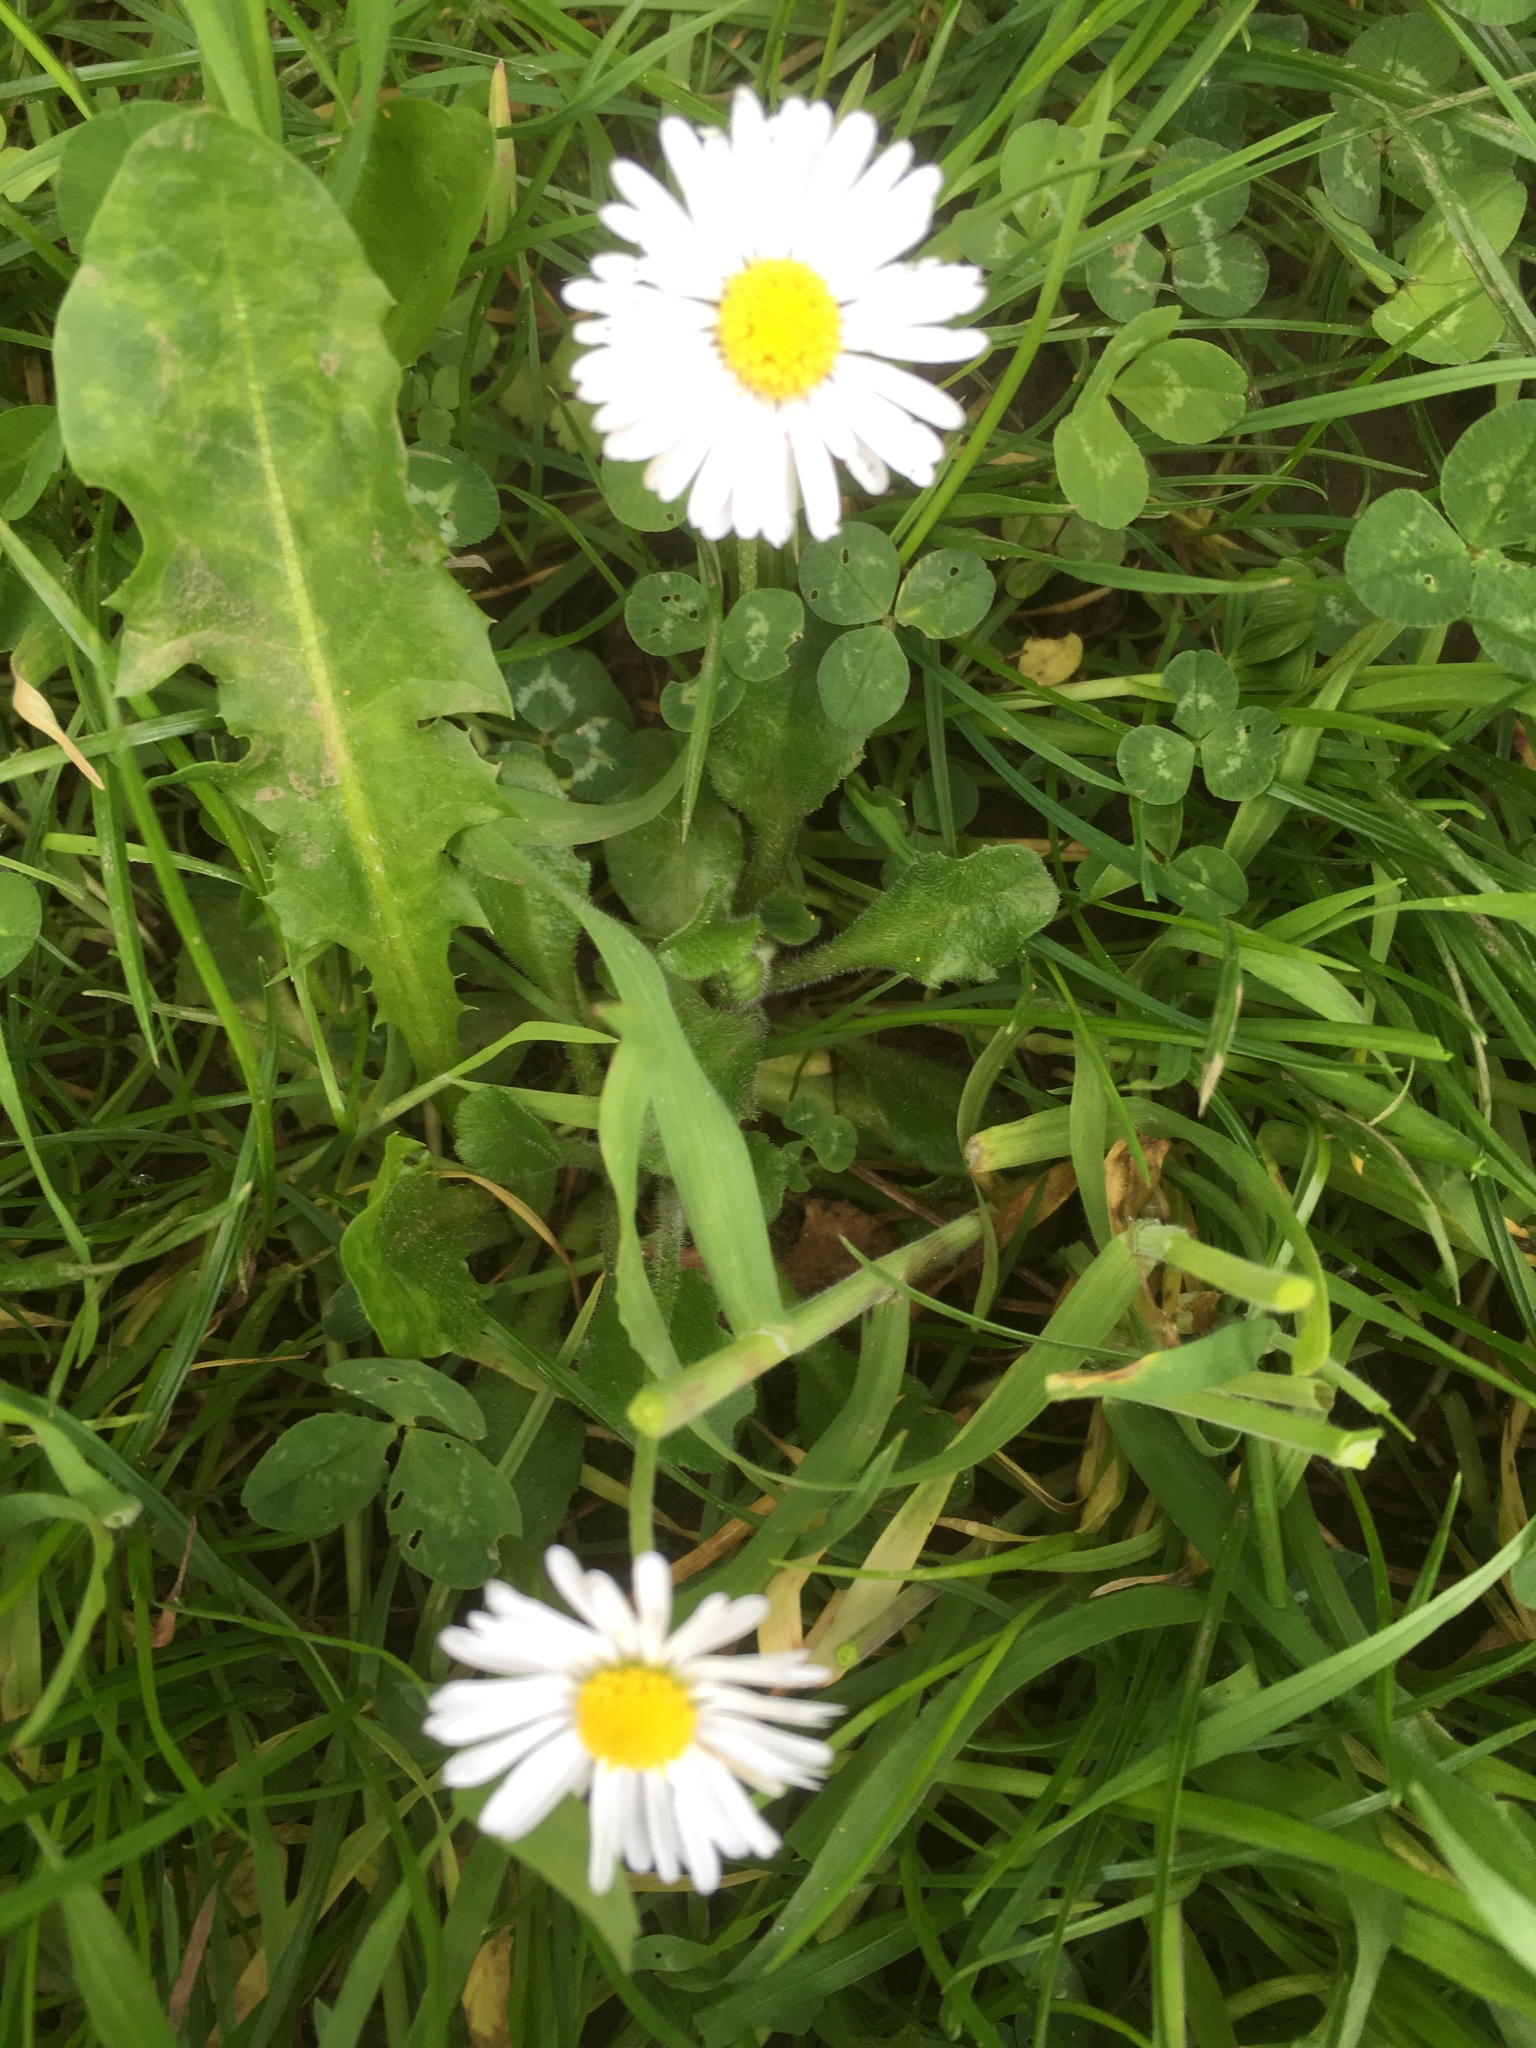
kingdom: Plantae
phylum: Tracheophyta
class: Magnoliopsida
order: Asterales
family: Asteraceae
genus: Bellis
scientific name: Bellis perennis
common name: Lawndaisy
